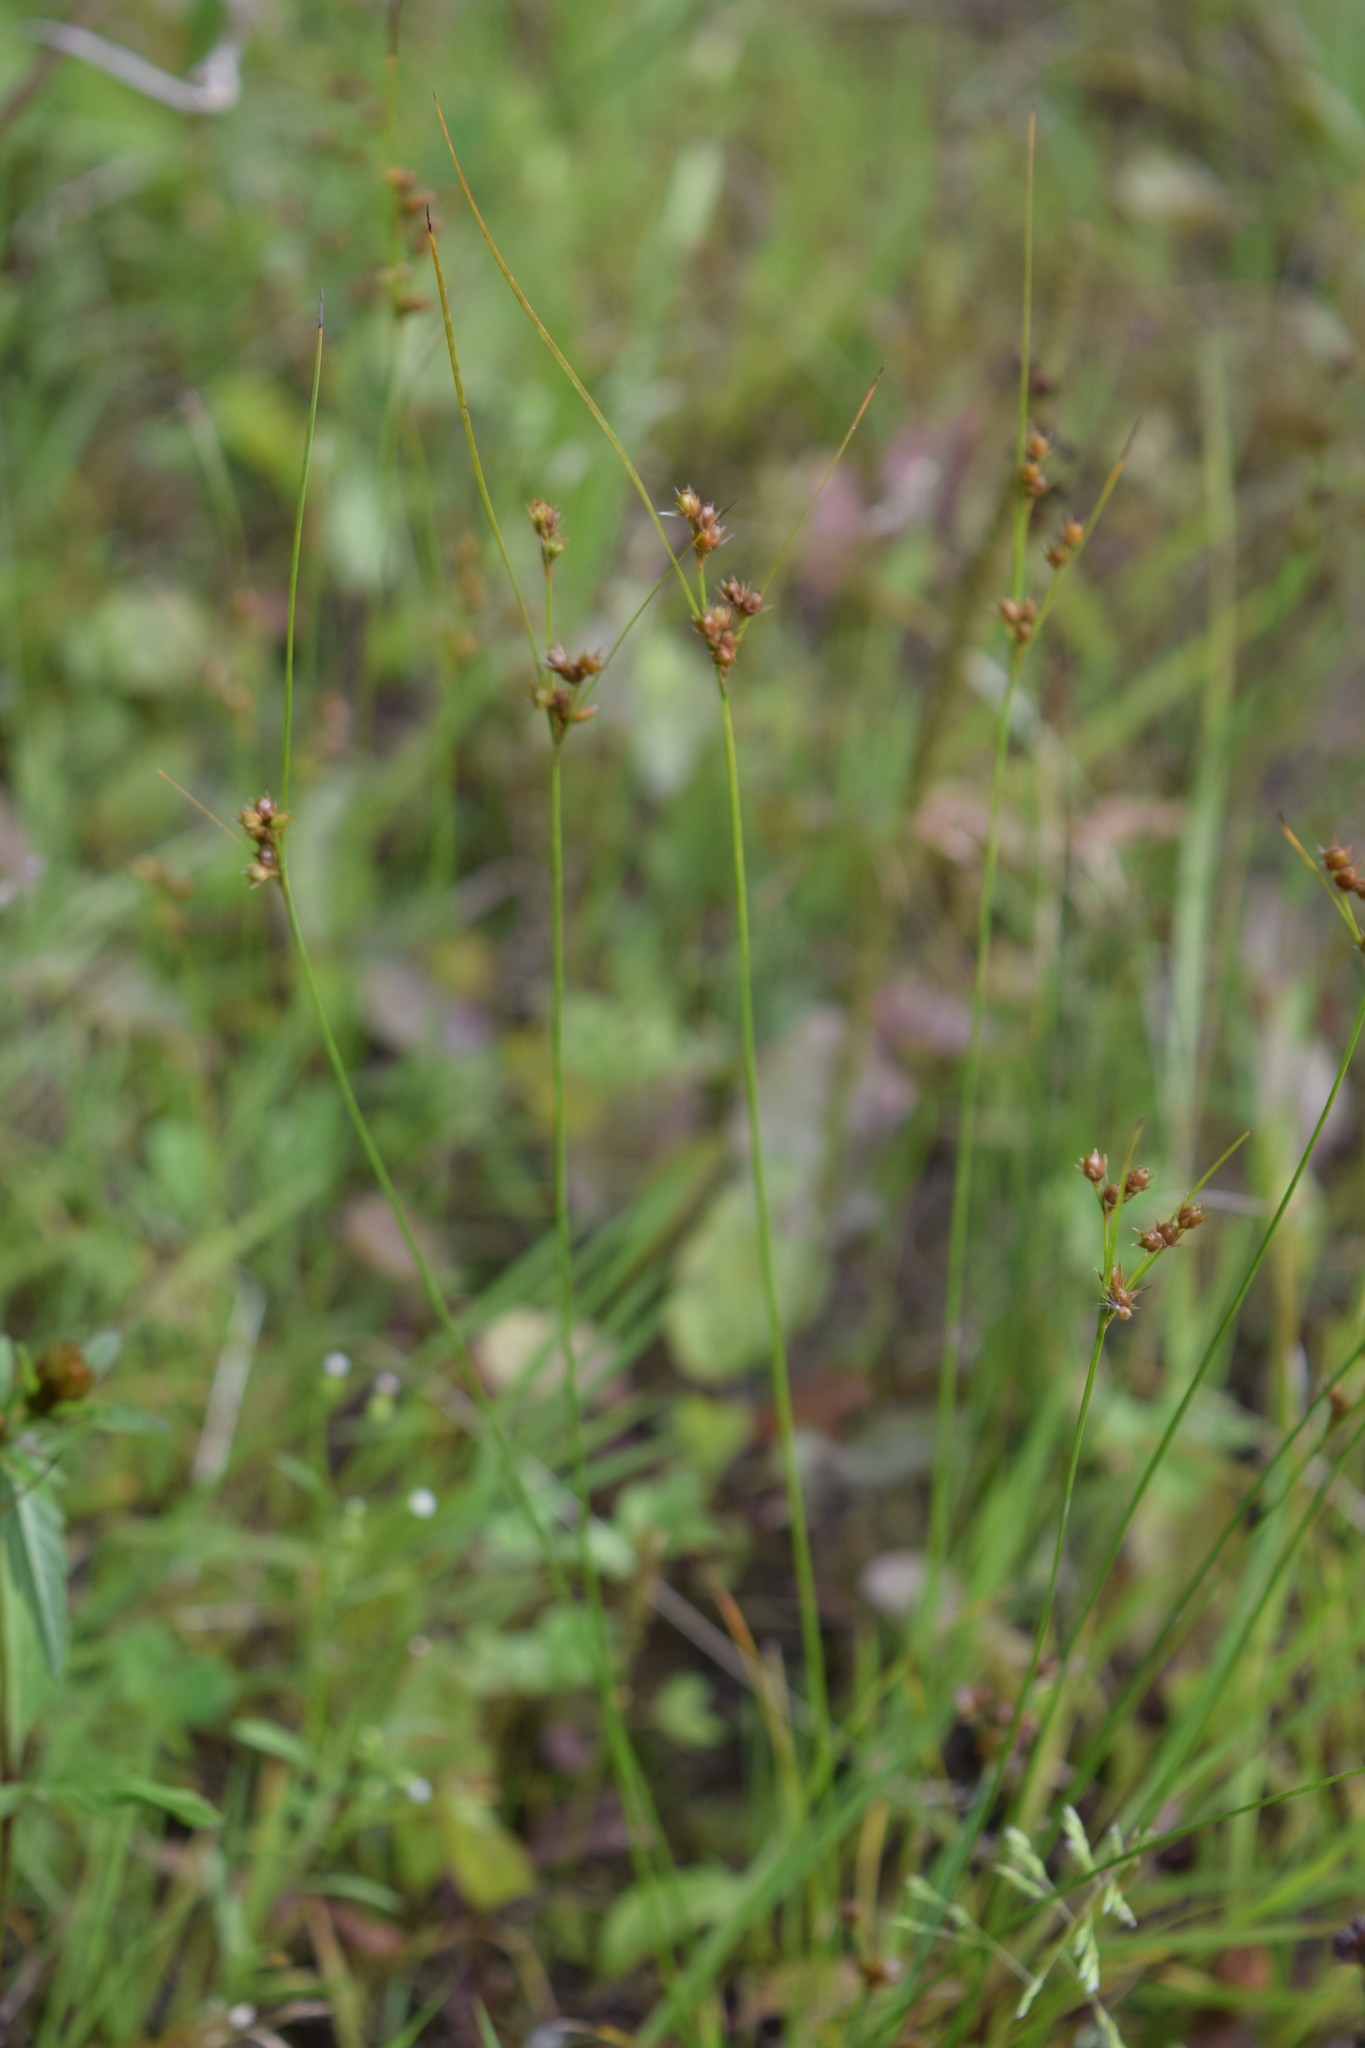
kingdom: Plantae
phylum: Tracheophyta
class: Liliopsida
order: Poales
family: Juncaceae
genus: Juncus
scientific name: Juncus tenuis
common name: Slender rush
